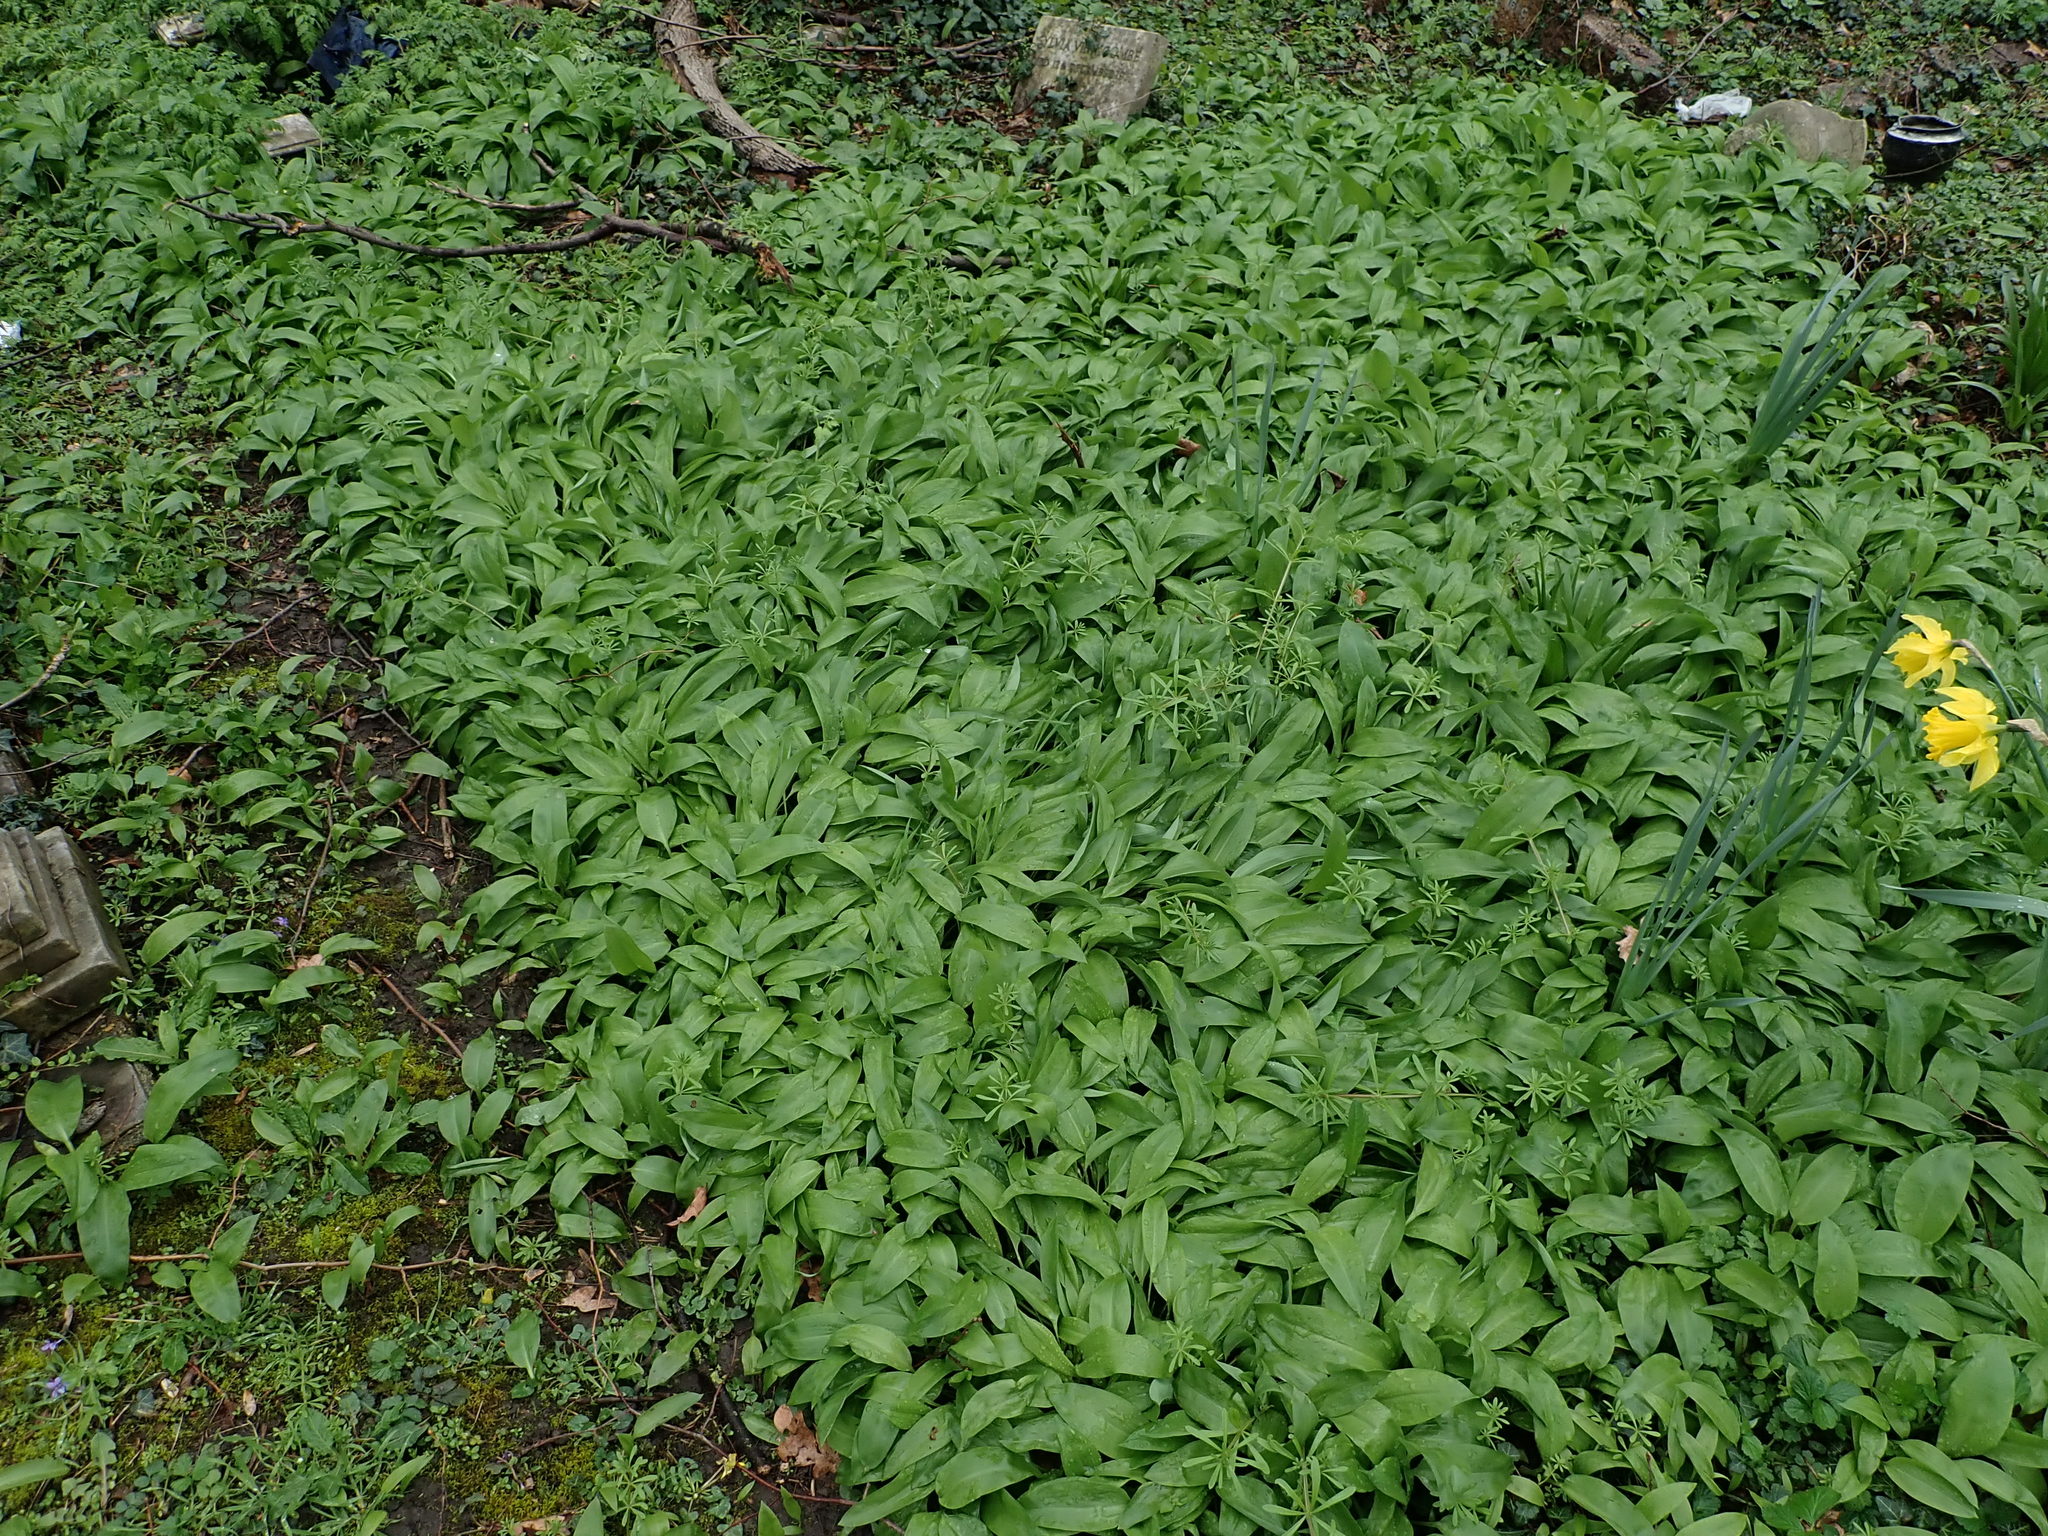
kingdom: Plantae
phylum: Tracheophyta
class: Liliopsida
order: Asparagales
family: Amaryllidaceae
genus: Allium
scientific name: Allium ursinum
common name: Ramsons
